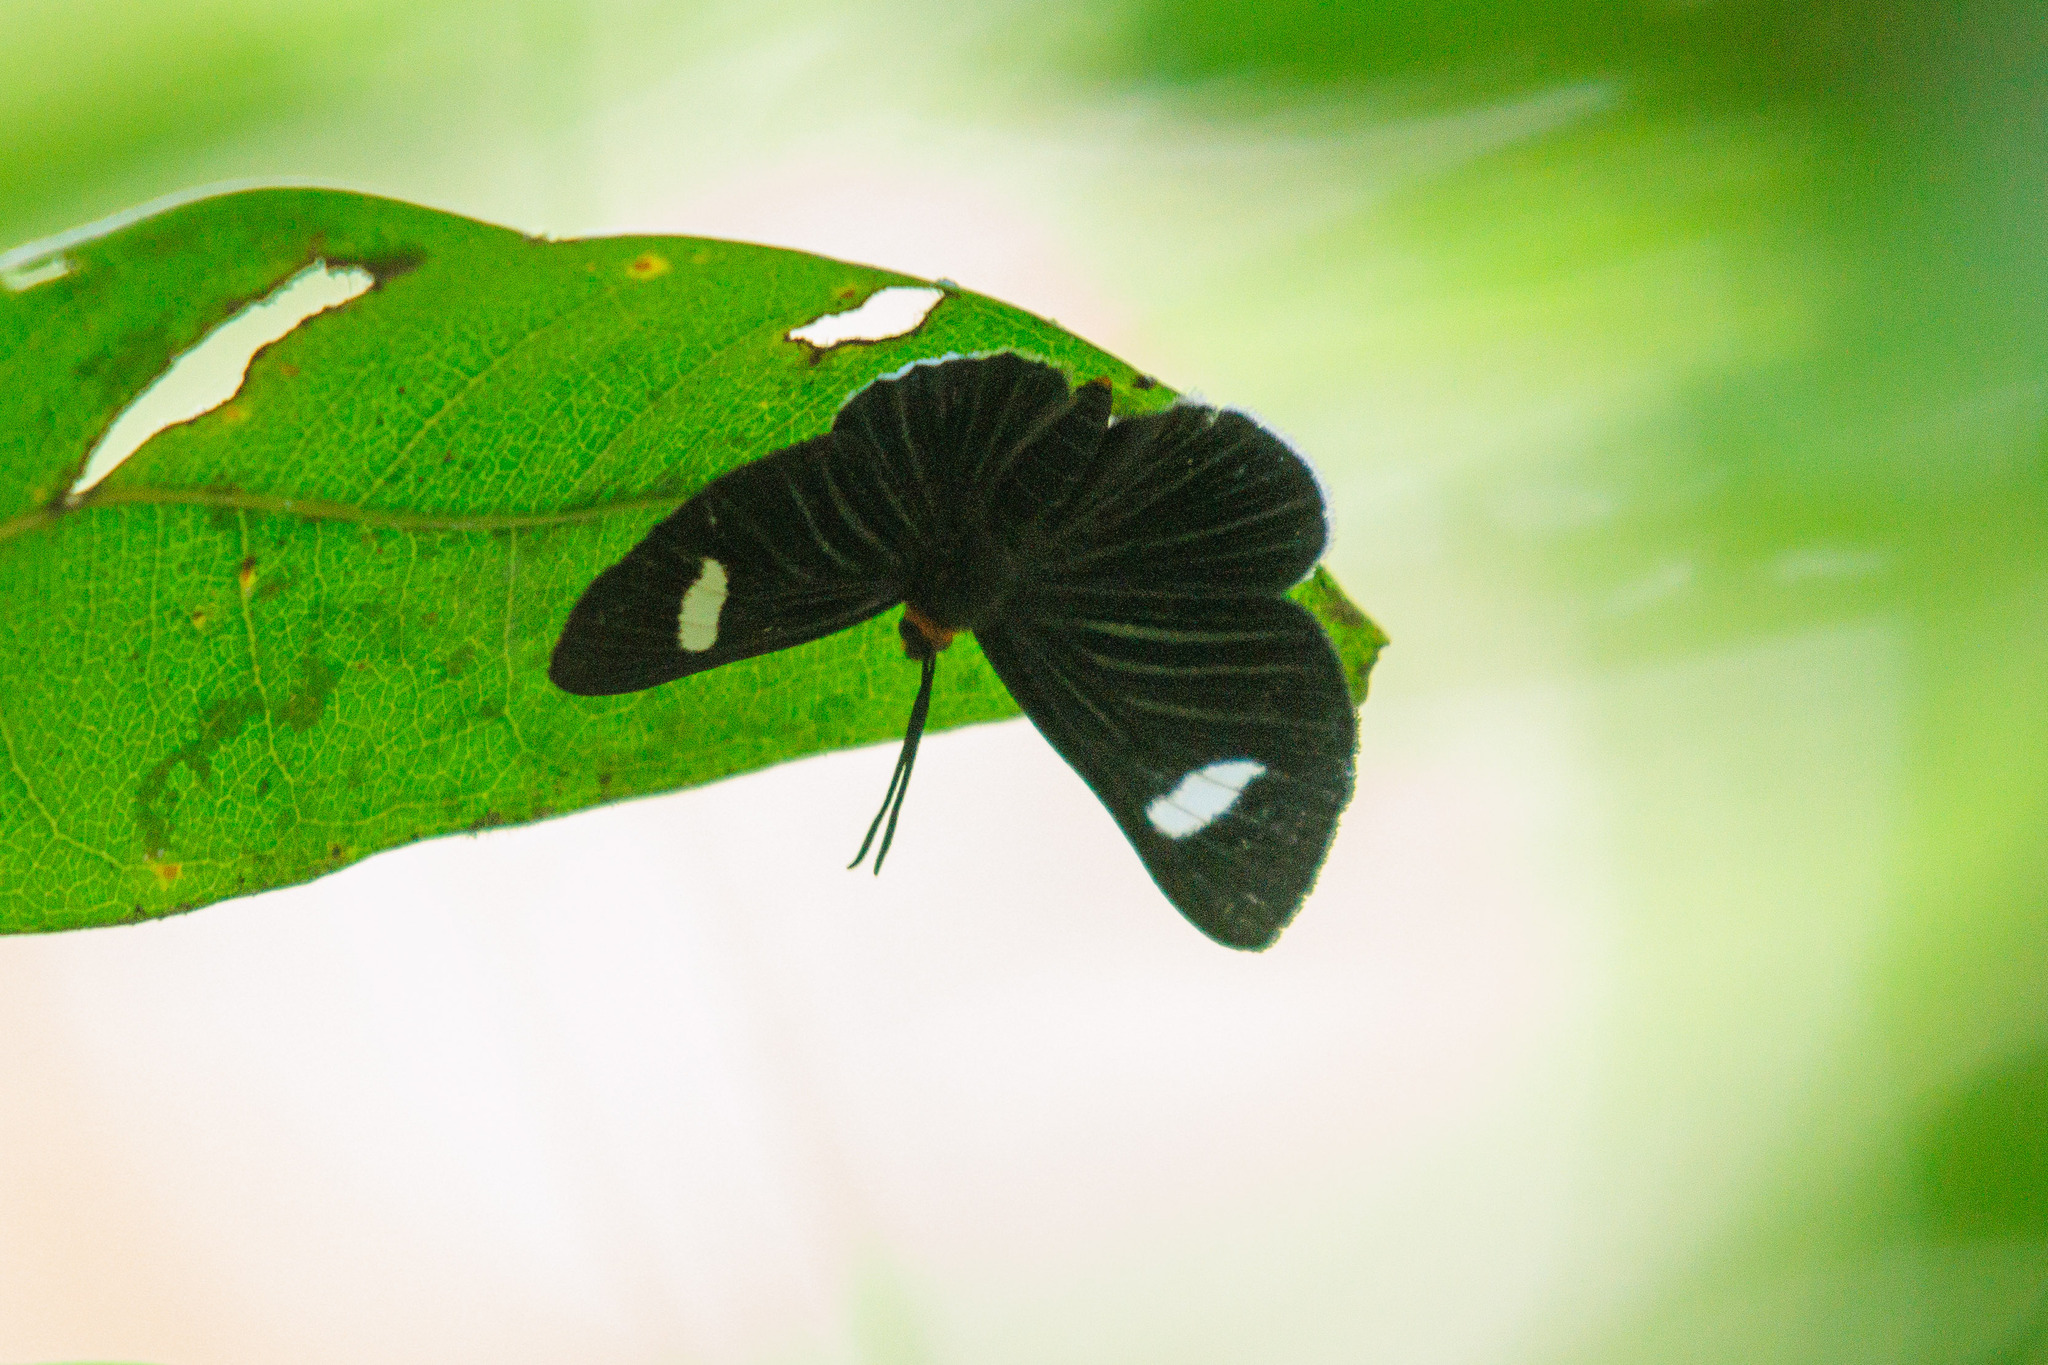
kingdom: Animalia
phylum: Arthropoda
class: Insecta
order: Lepidoptera
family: Riodinidae
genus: Pheles
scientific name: Pheles atricolor
